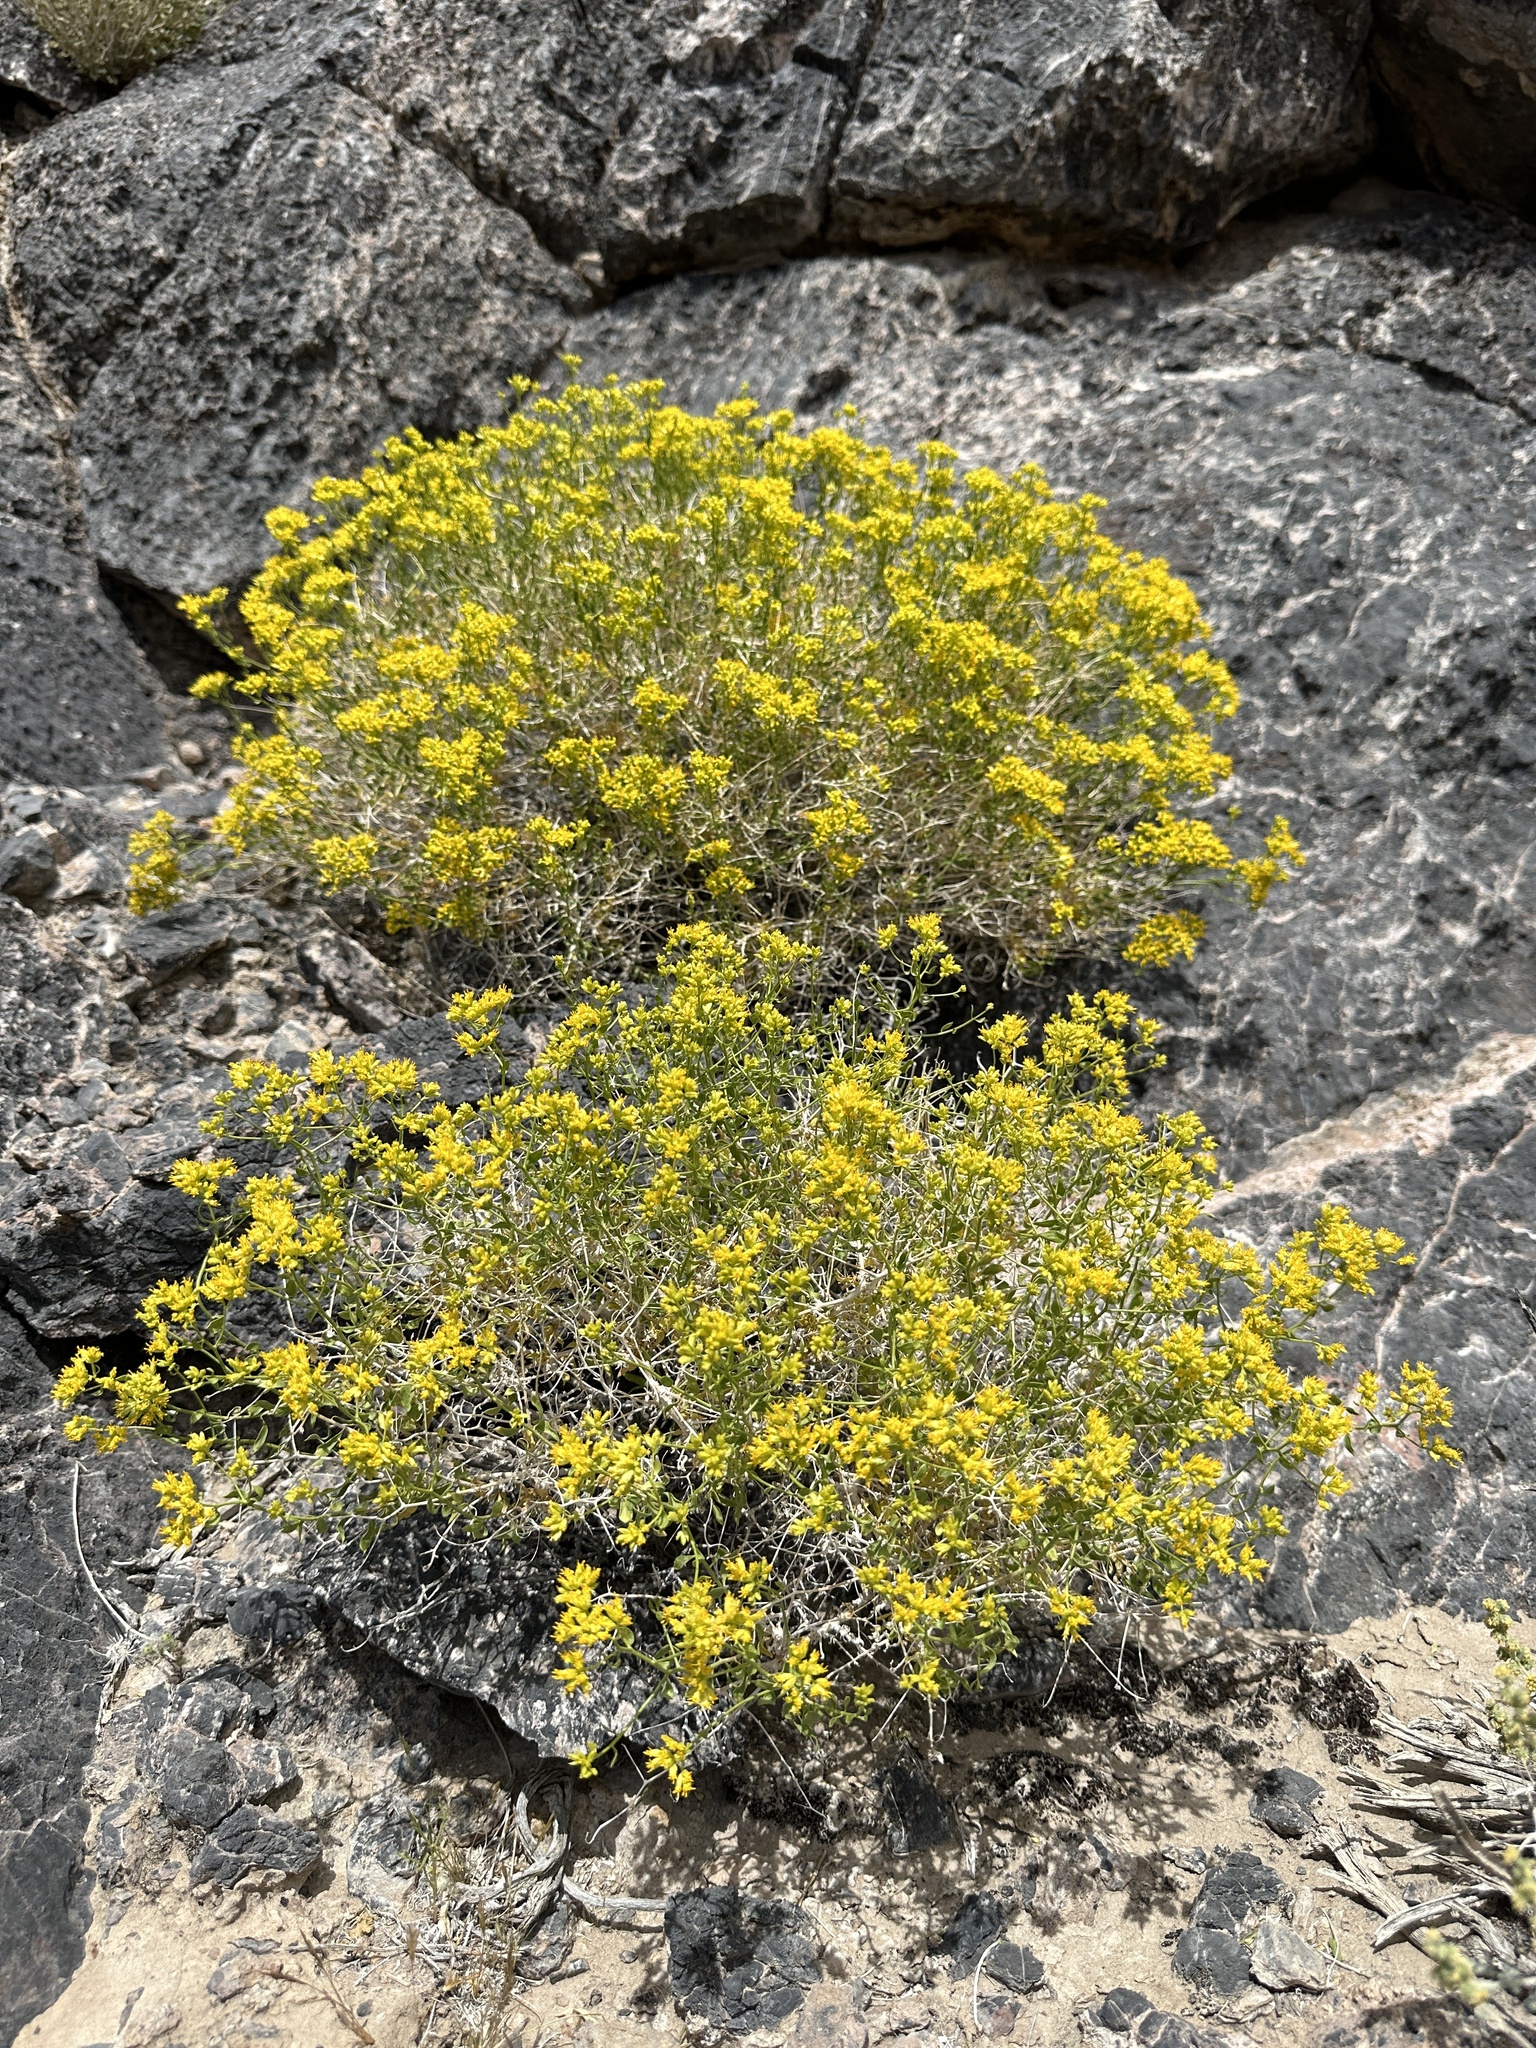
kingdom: Plantae
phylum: Tracheophyta
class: Magnoliopsida
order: Asterales
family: Asteraceae
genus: Amphipappus
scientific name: Amphipappus fremontii
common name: Fremont's chaffbush
